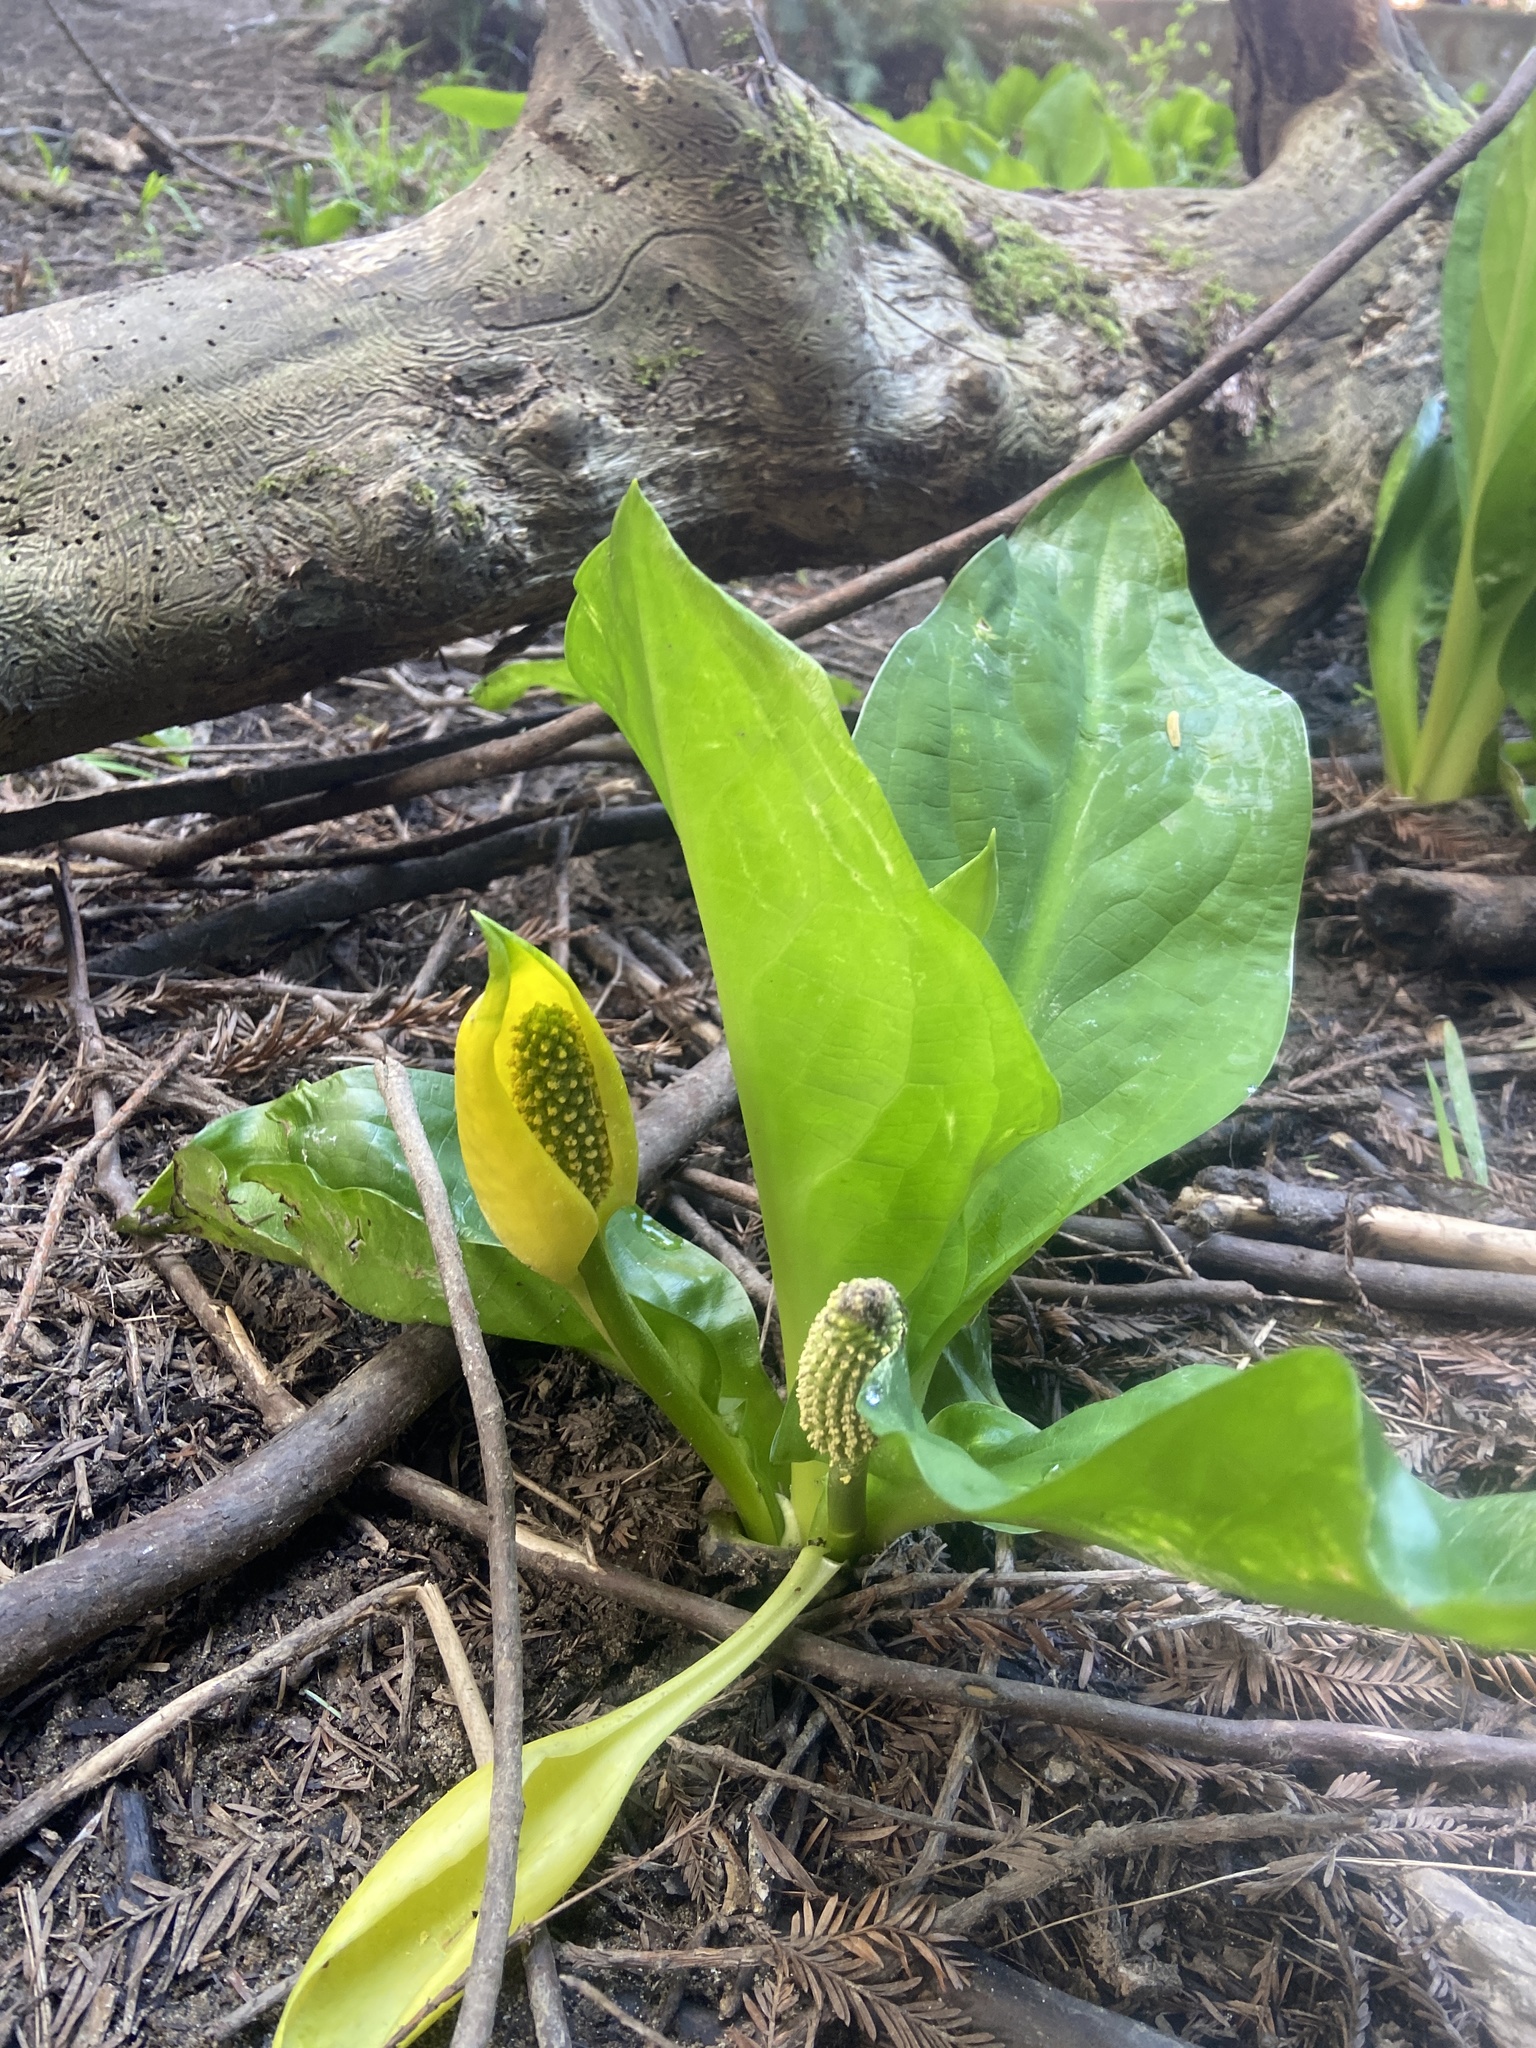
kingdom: Plantae
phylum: Tracheophyta
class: Liliopsida
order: Alismatales
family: Araceae
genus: Lysichiton
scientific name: Lysichiton americanus
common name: American skunk cabbage
